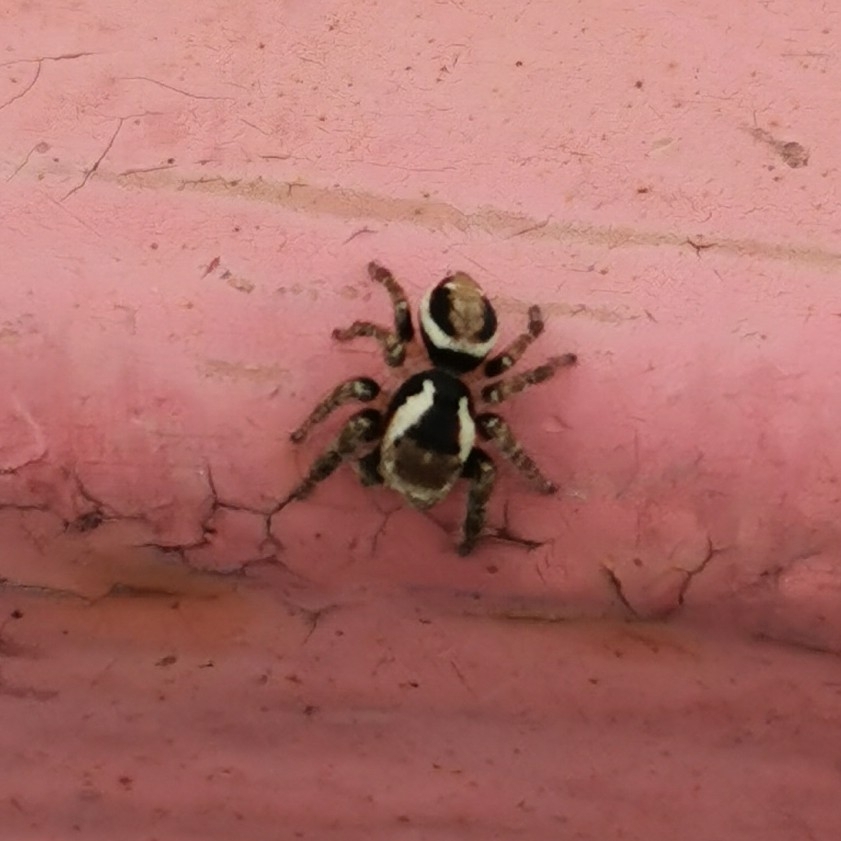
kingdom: Animalia
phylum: Arthropoda
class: Arachnida
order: Araneae
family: Salticidae
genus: Evarcha
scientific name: Evarcha falcata
